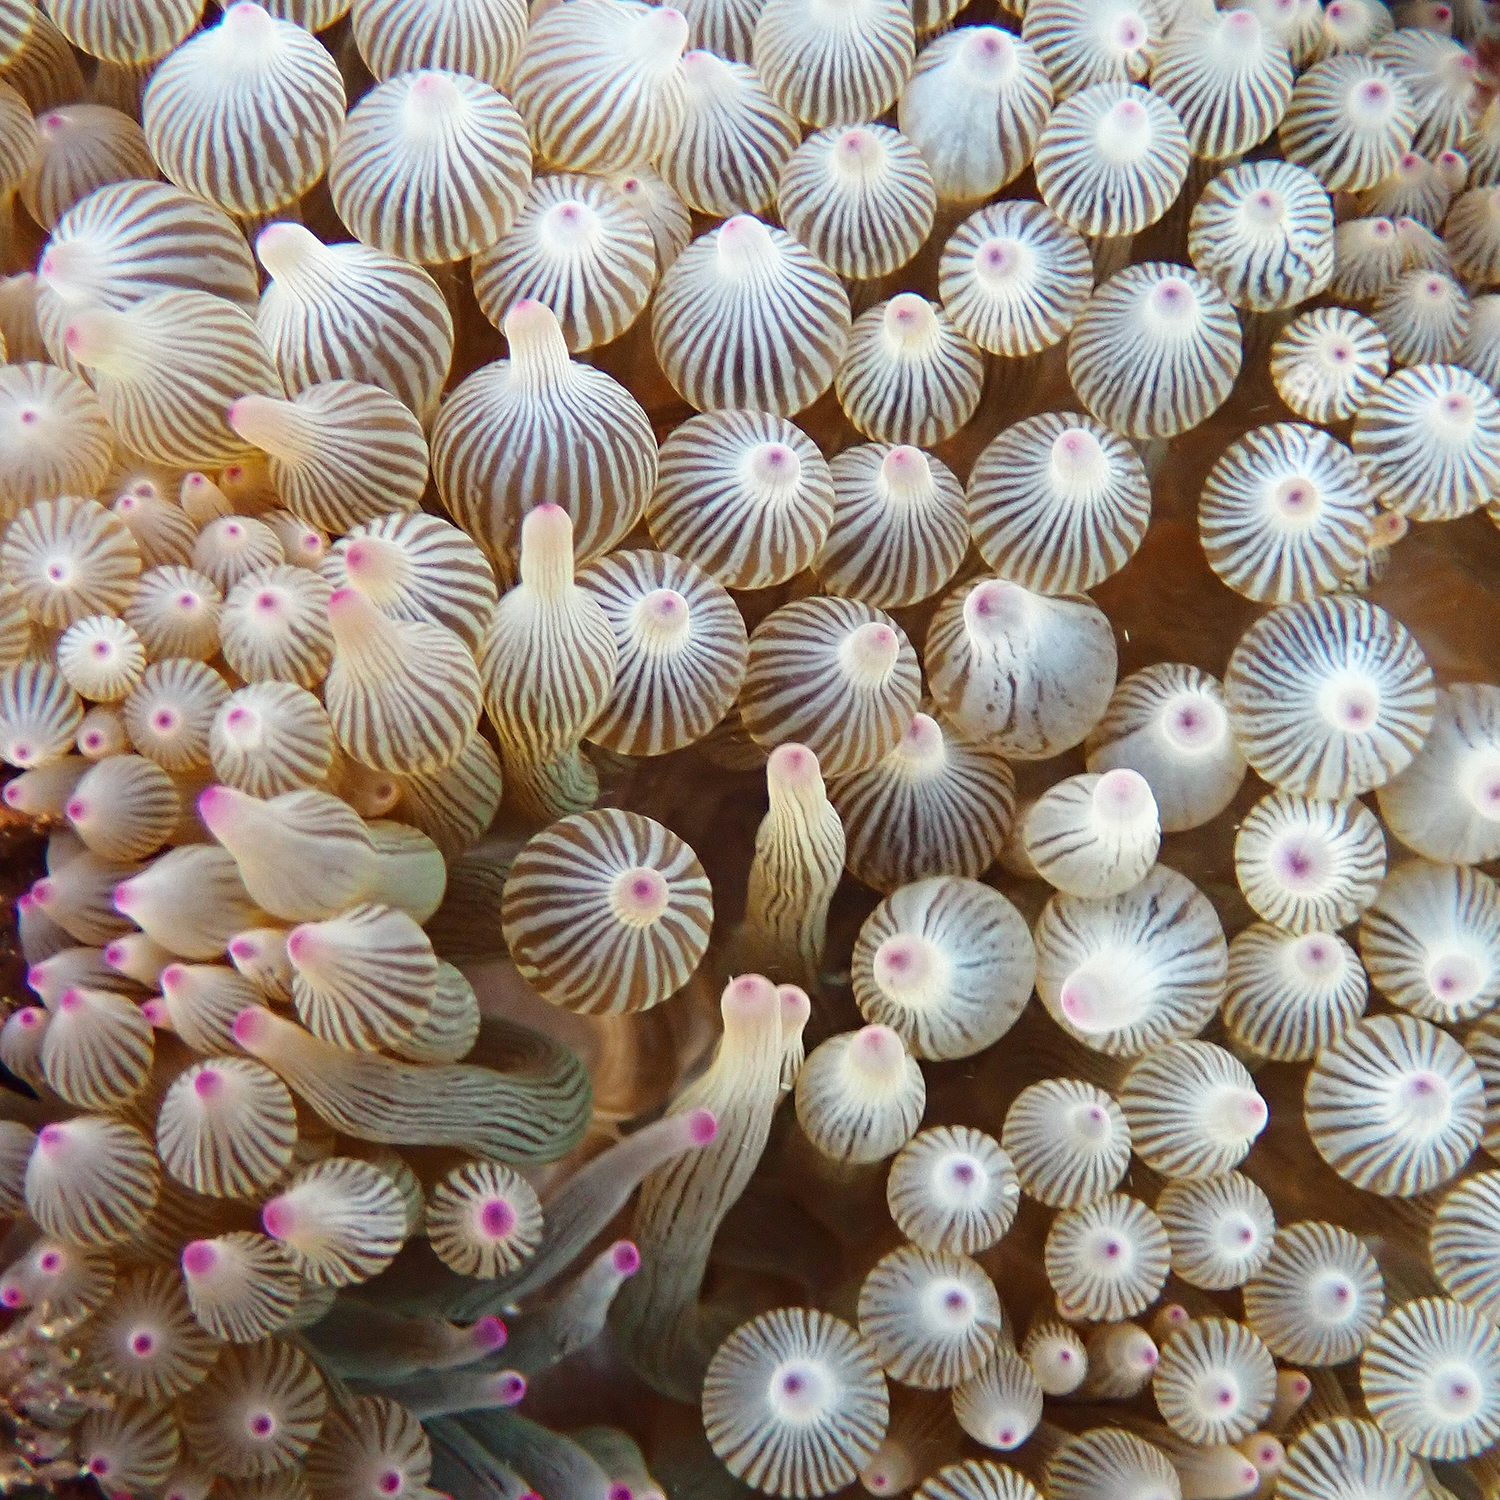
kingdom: Animalia
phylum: Cnidaria
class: Anthozoa
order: Actiniaria
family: Actiniidae
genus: Entacmaea
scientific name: Entacmaea quadricolor
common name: Bulb tentacle sea anemone
